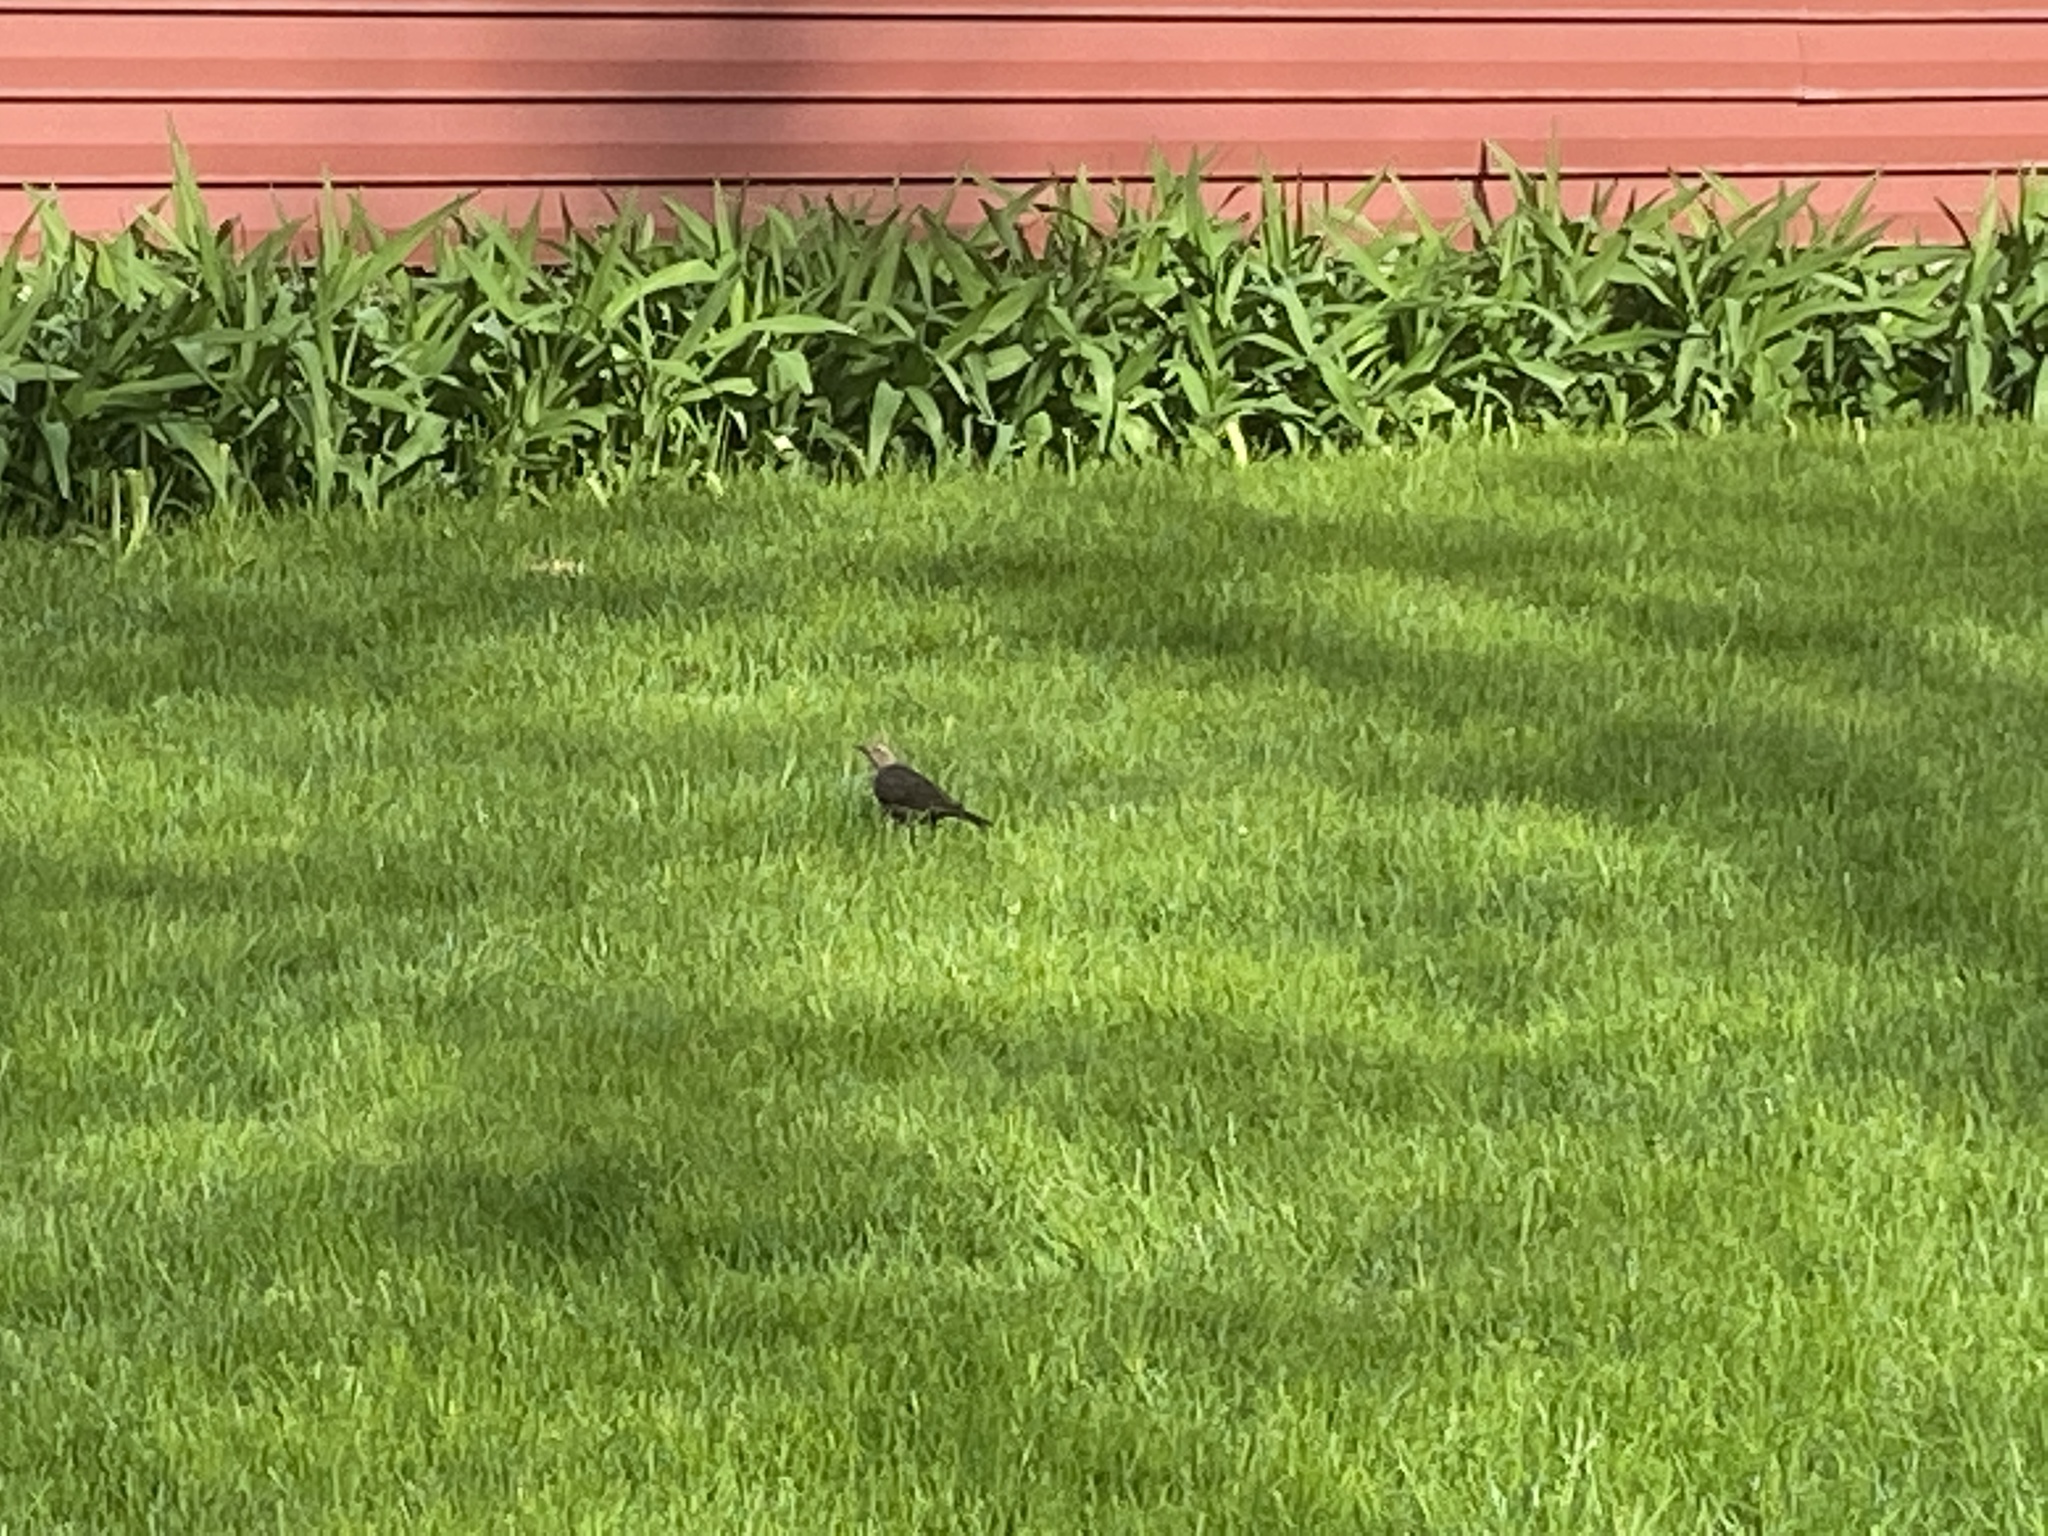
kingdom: Animalia
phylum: Chordata
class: Aves
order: Passeriformes
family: Icteridae
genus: Molothrus
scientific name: Molothrus ater
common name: Brown-headed cowbird
